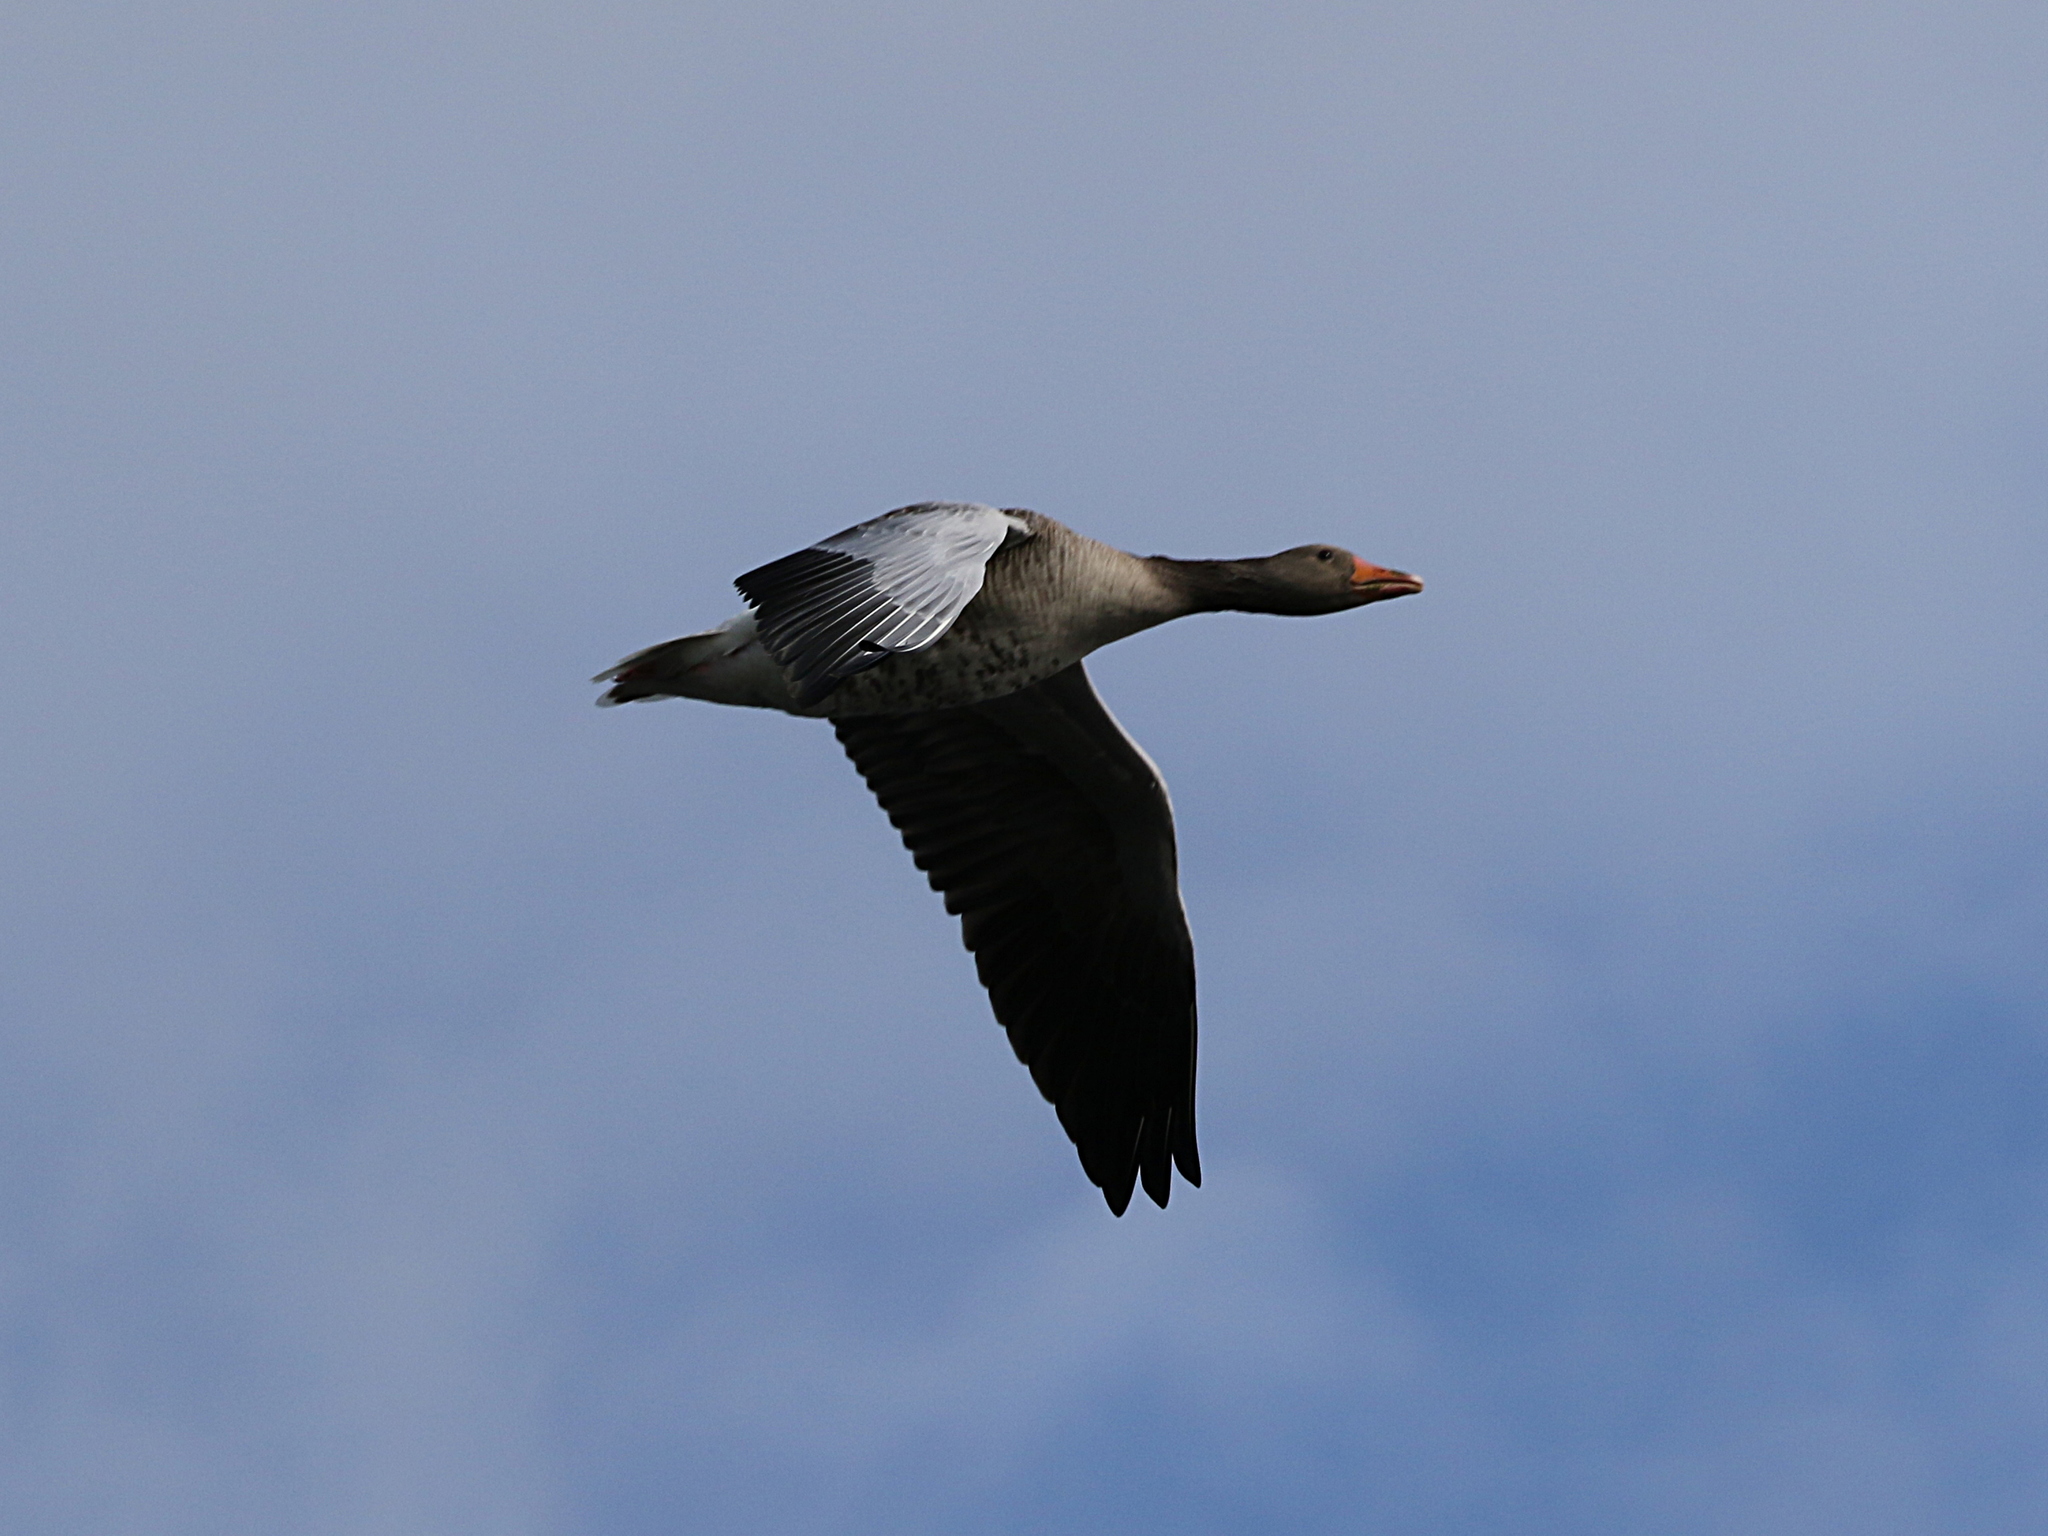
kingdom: Animalia
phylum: Chordata
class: Aves
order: Anseriformes
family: Anatidae
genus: Anser
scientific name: Anser anser
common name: Greylag goose
